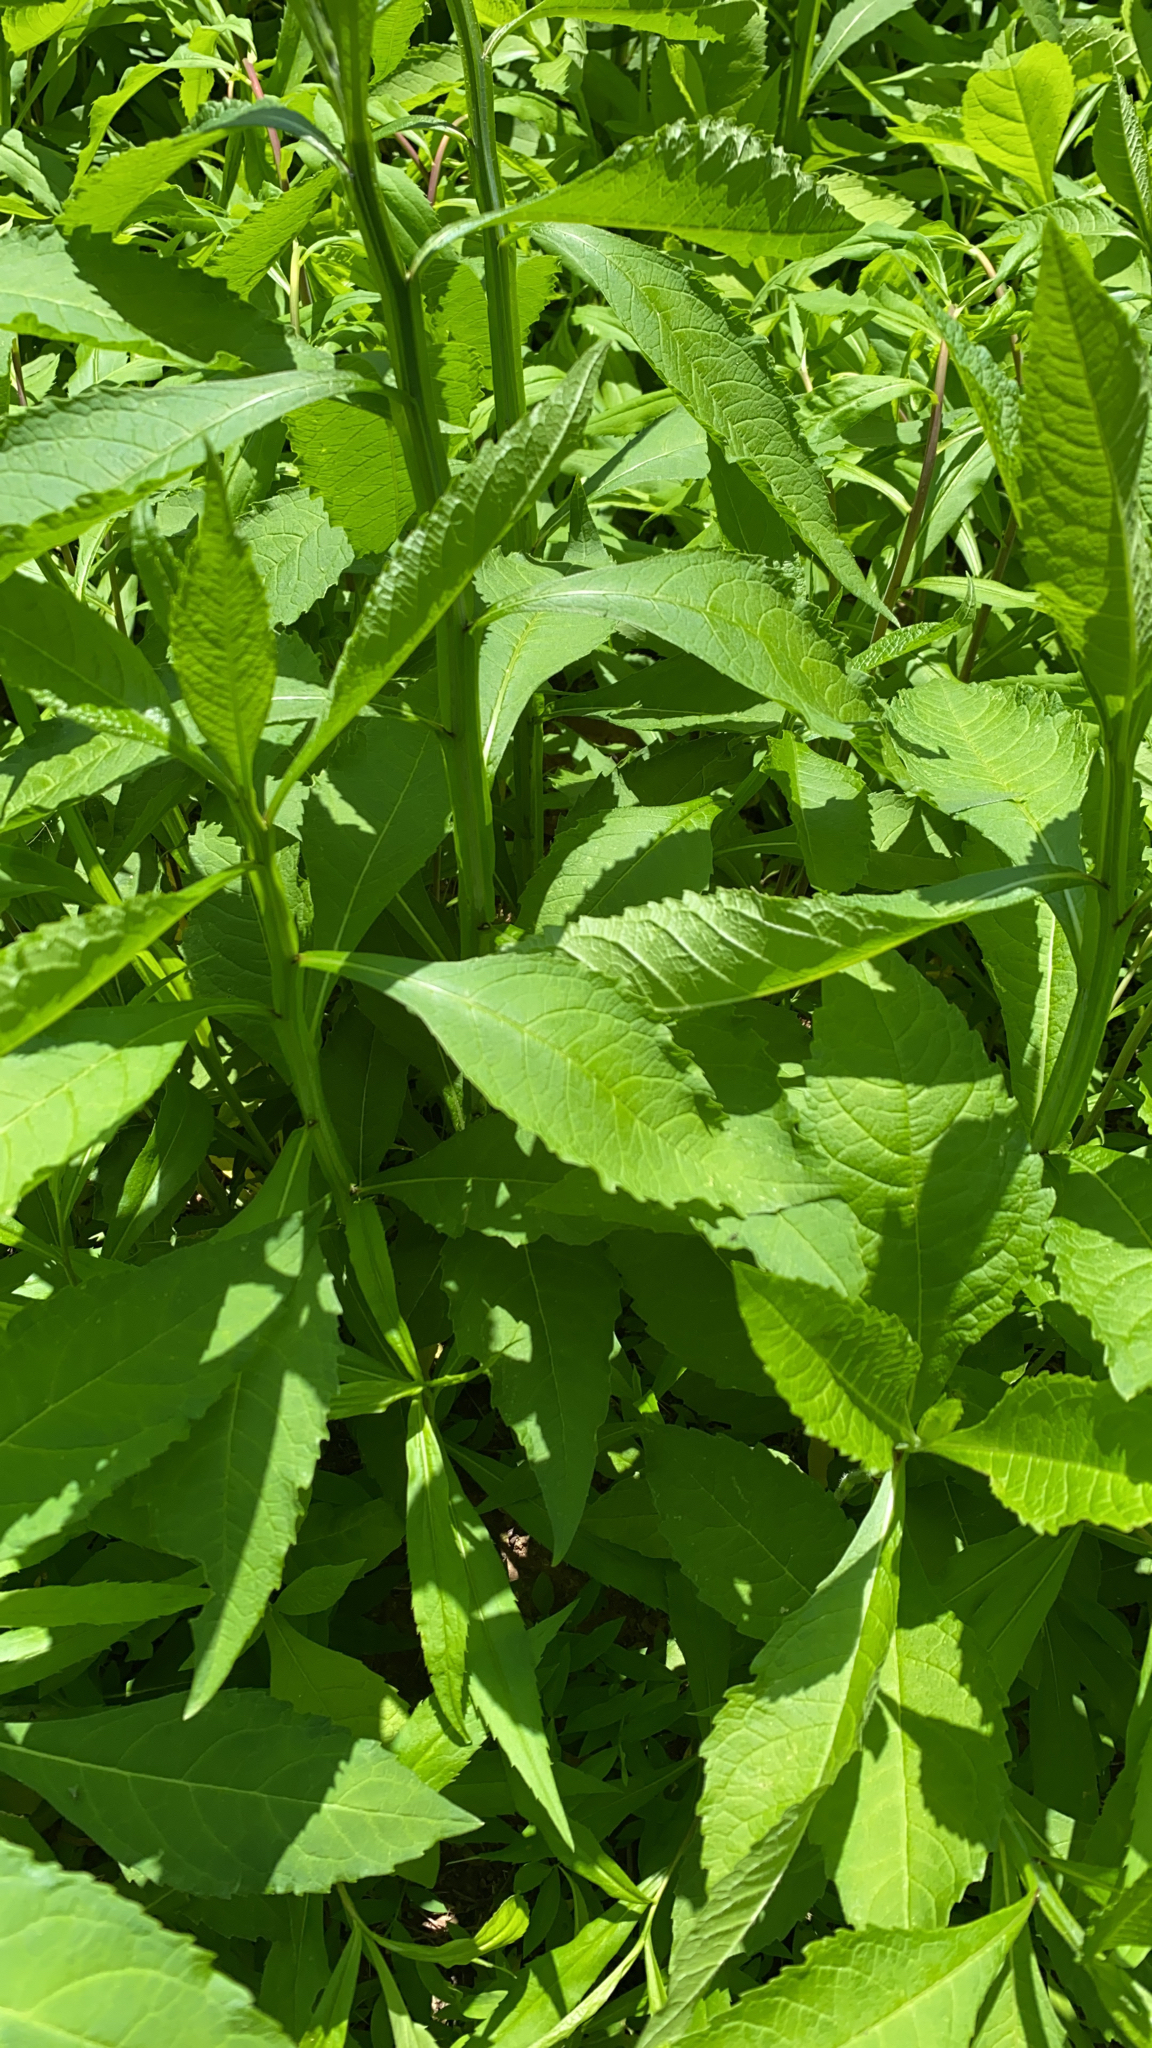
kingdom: Plantae
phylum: Tracheophyta
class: Magnoliopsida
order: Asterales
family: Asteraceae
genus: Verbesina
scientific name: Verbesina alternifolia
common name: Wingstem
